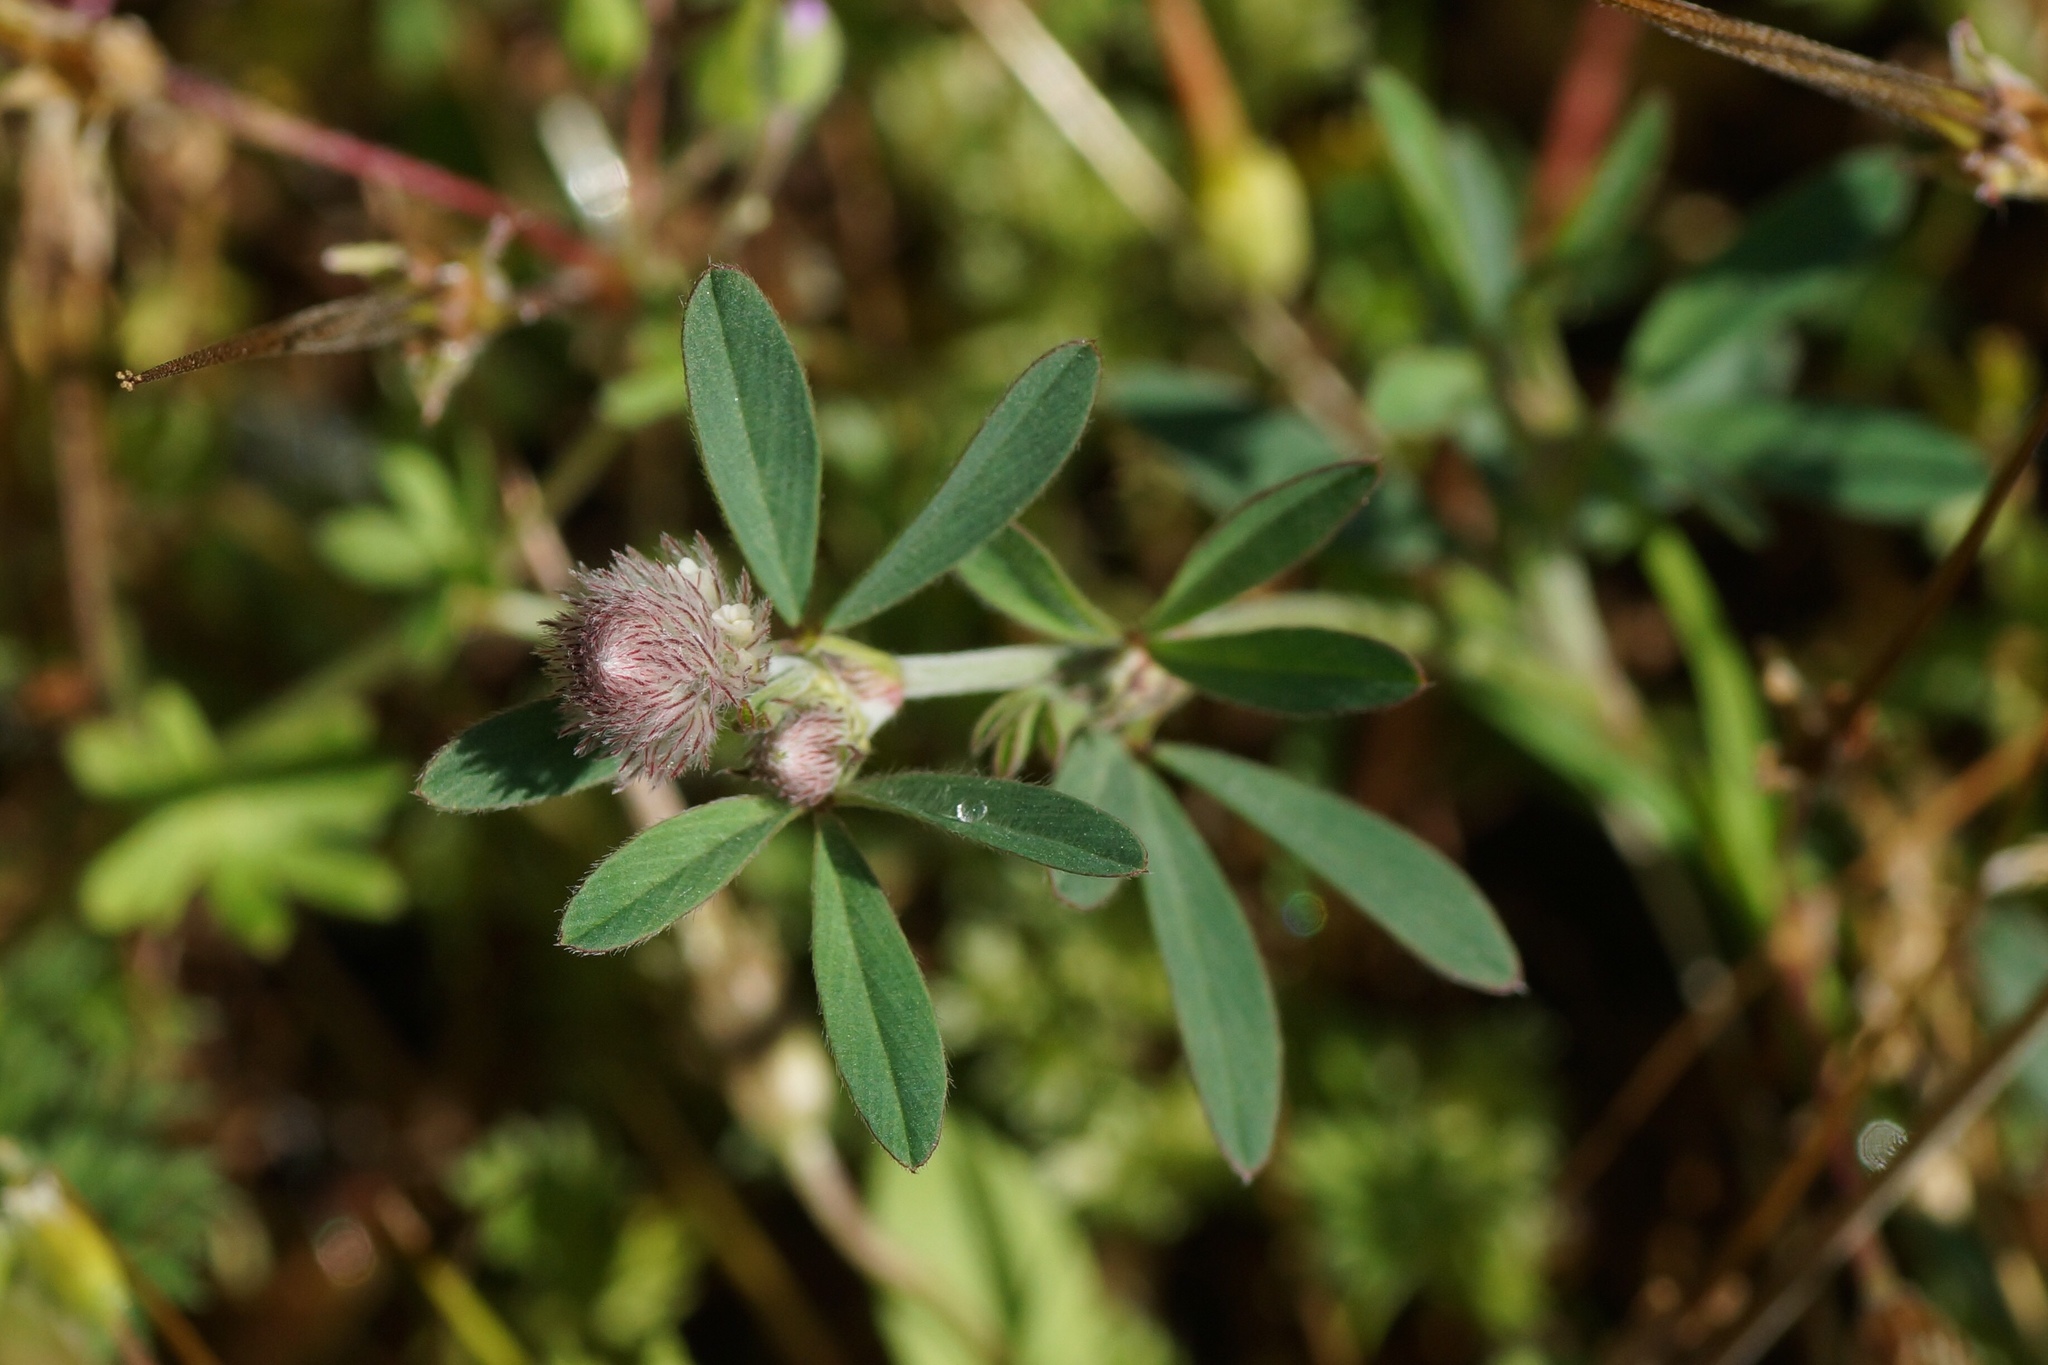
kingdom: Plantae
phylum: Tracheophyta
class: Magnoliopsida
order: Fabales
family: Fabaceae
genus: Trifolium
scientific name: Trifolium arvense
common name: Hare's-foot clover
